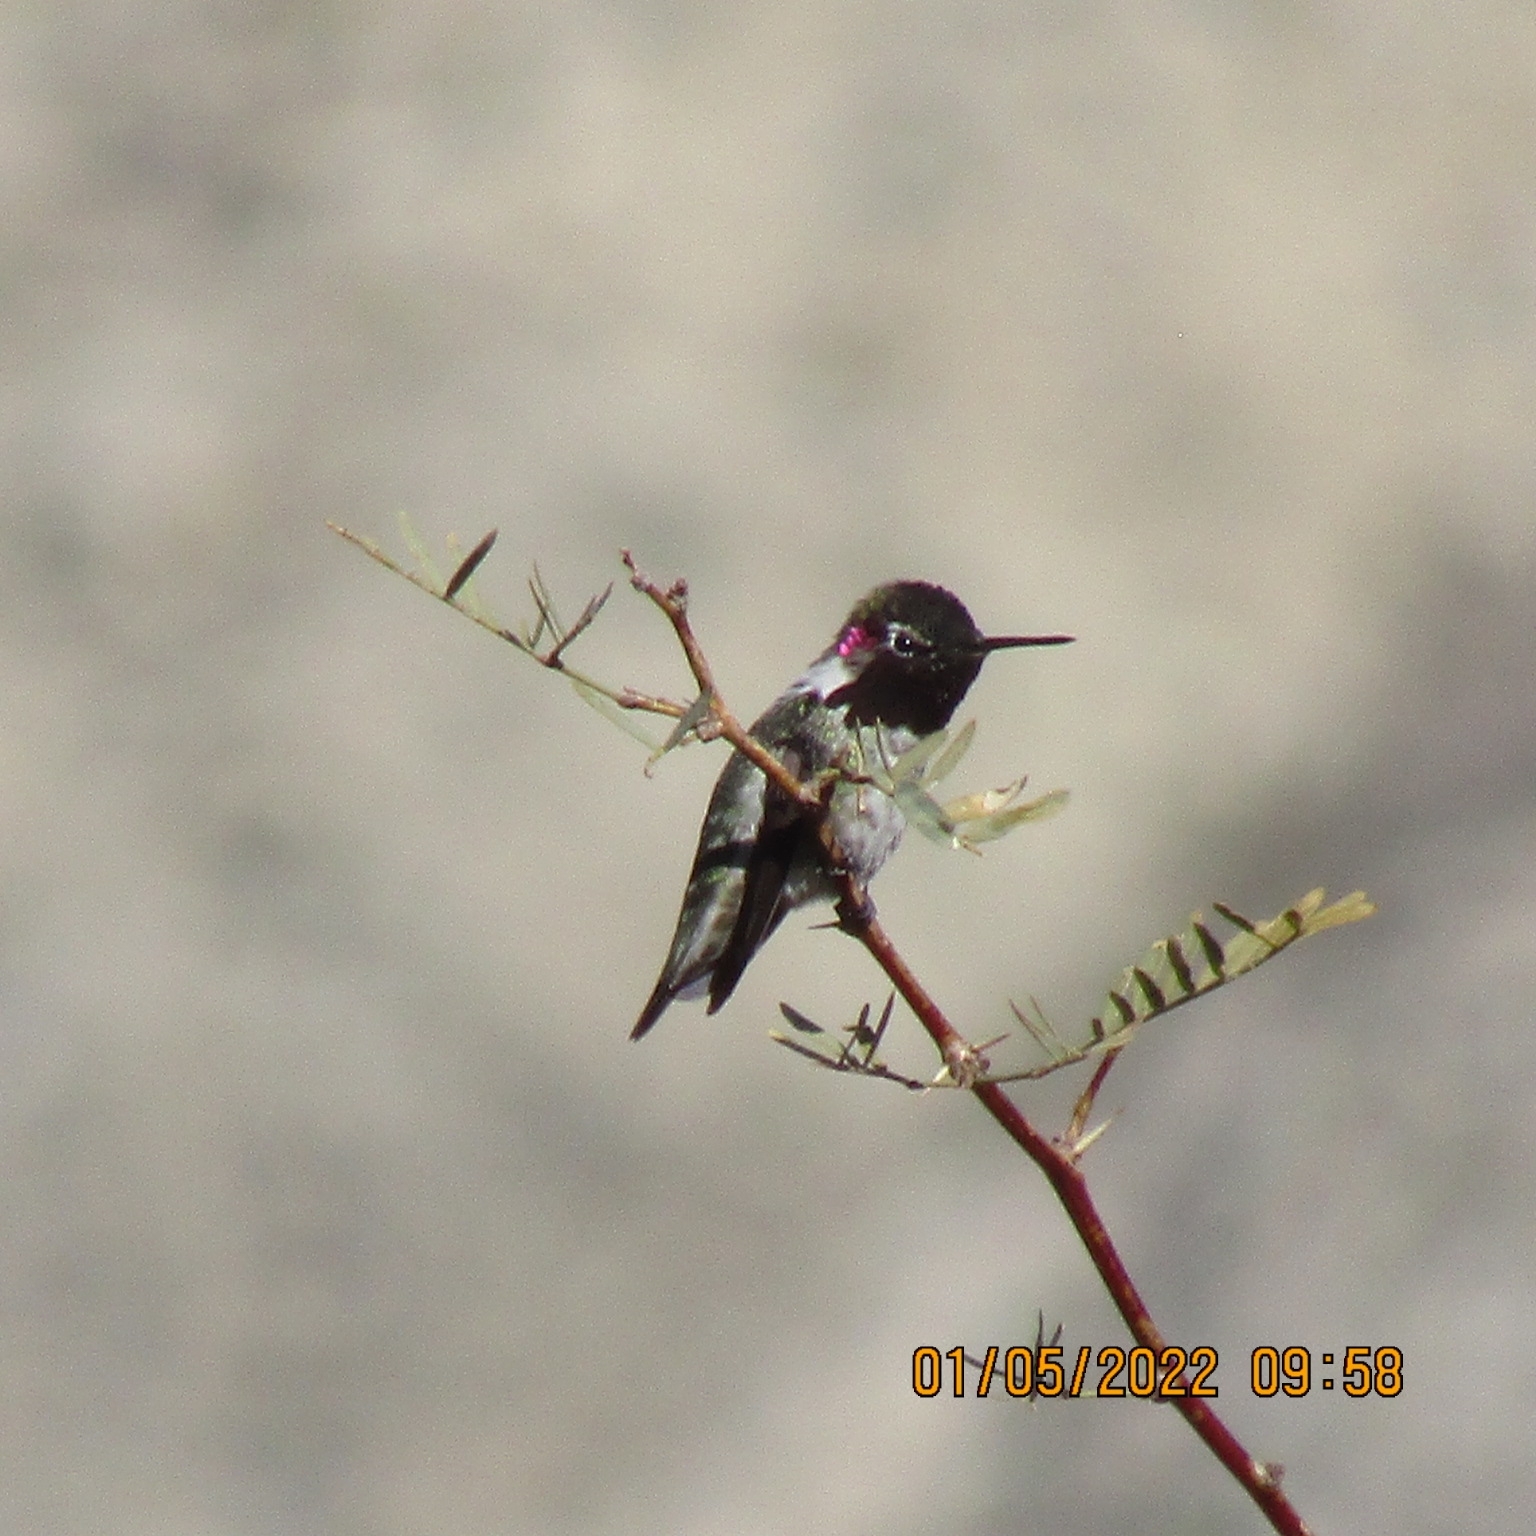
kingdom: Animalia
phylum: Chordata
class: Aves
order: Apodiformes
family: Trochilidae
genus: Calypte
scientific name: Calypte anna
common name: Anna's hummingbird
